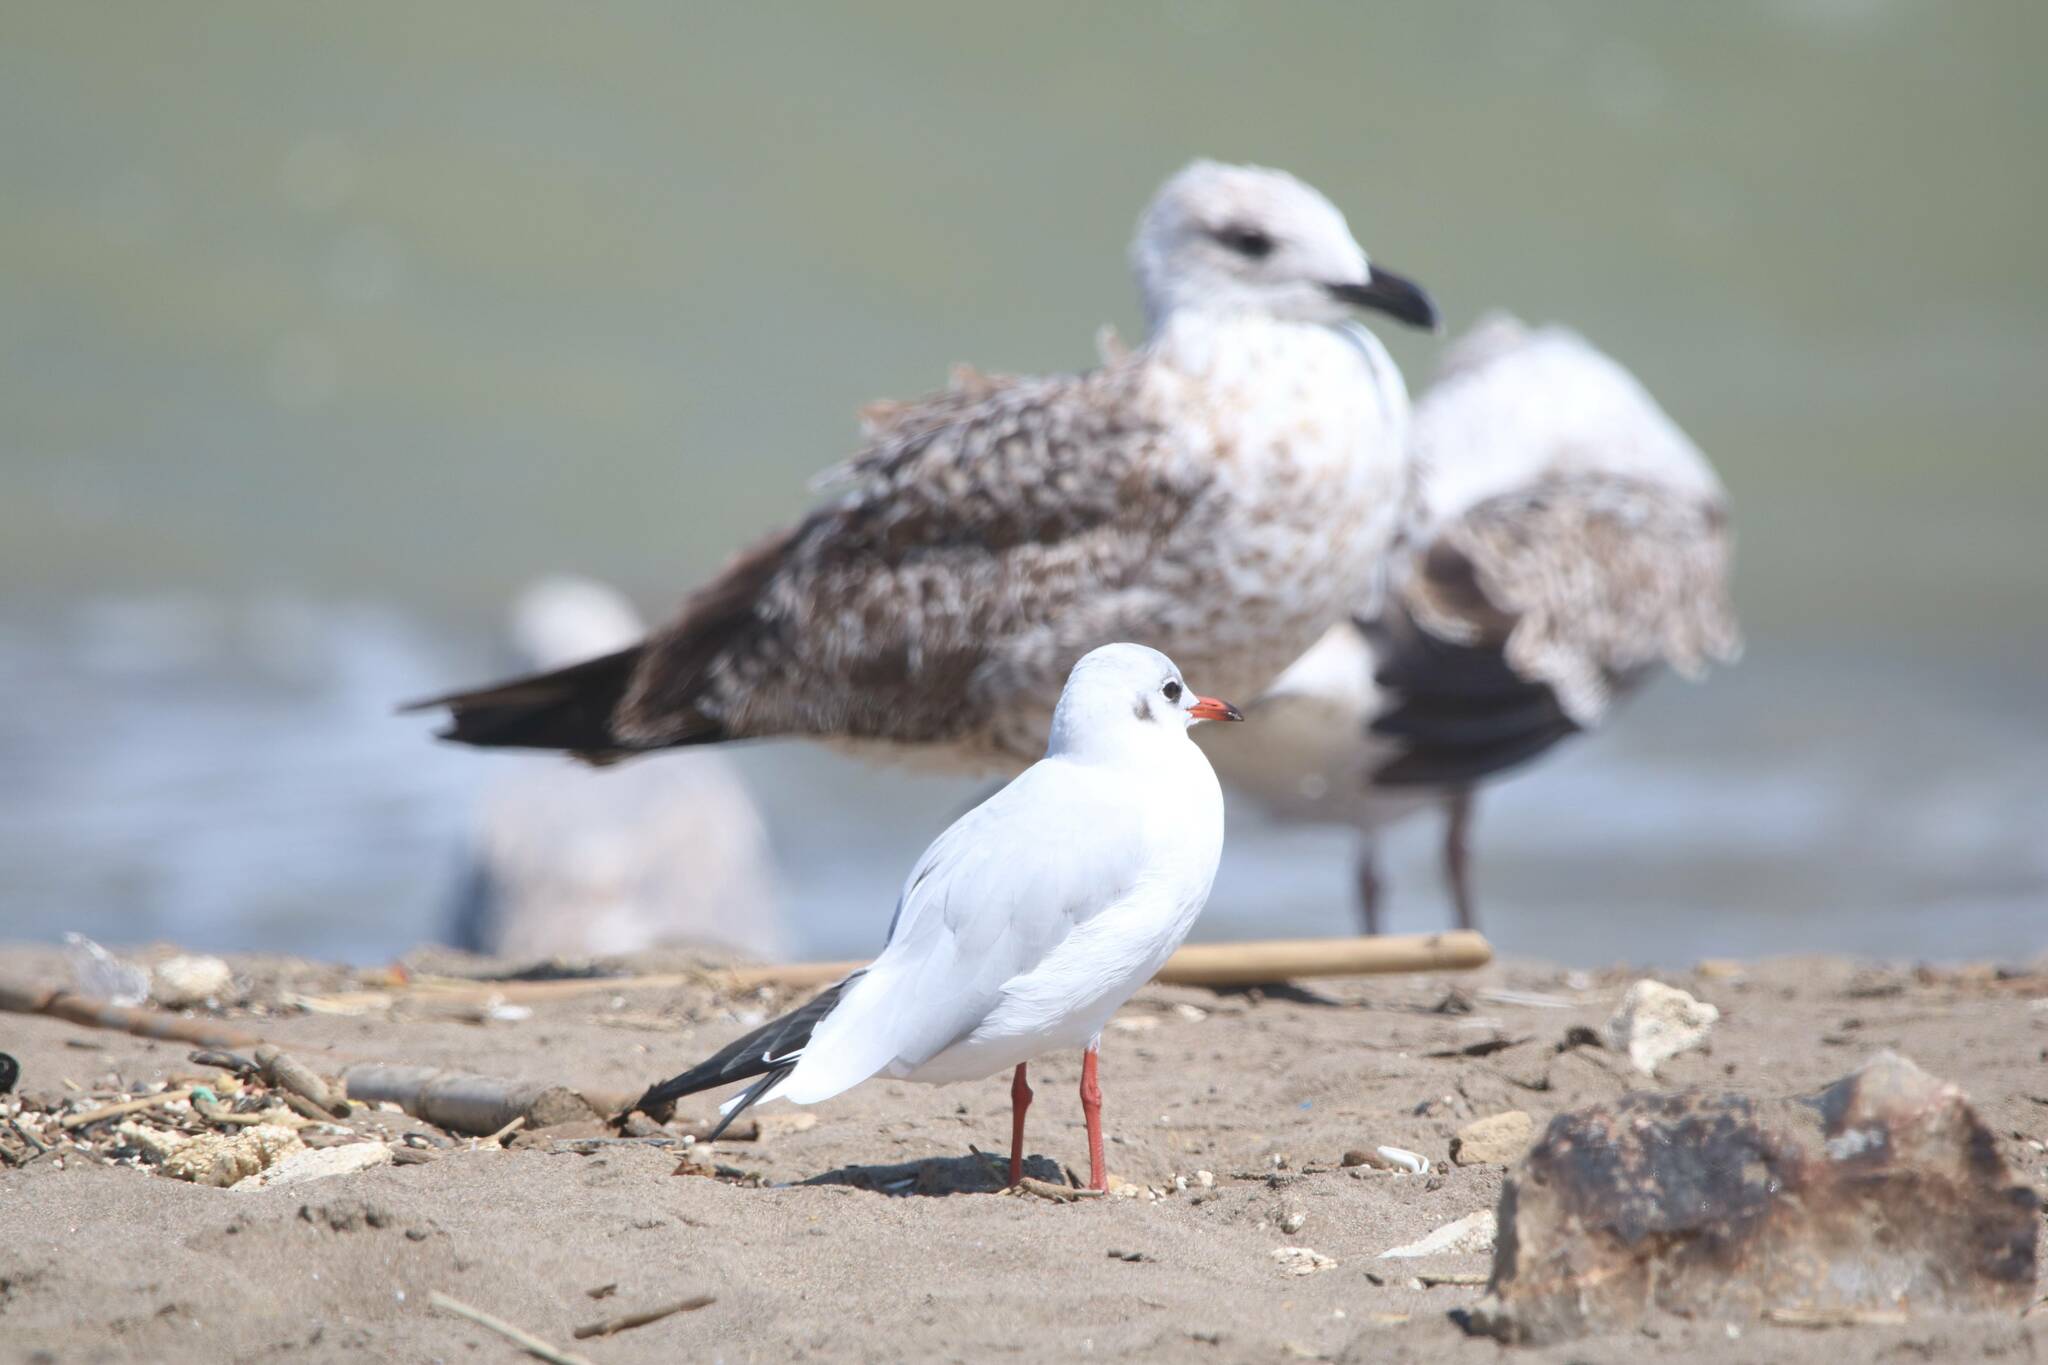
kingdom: Animalia
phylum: Chordata
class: Aves
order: Charadriiformes
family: Laridae
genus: Chroicocephalus
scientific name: Chroicocephalus ridibundus
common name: Black-headed gull
